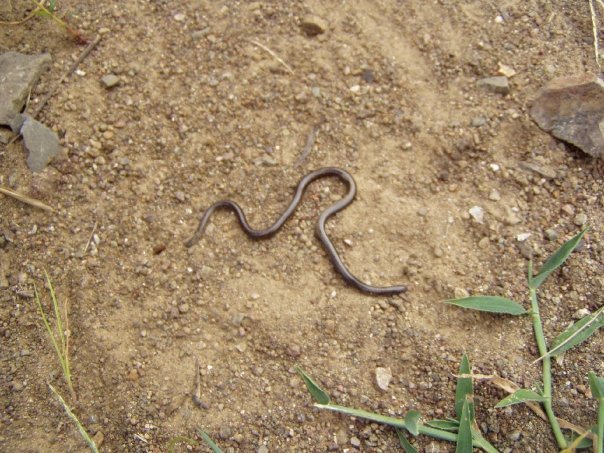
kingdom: Animalia
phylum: Chordata
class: Squamata
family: Leptotyphlopidae
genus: Epictia
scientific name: Epictia ater
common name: Black blind snake
